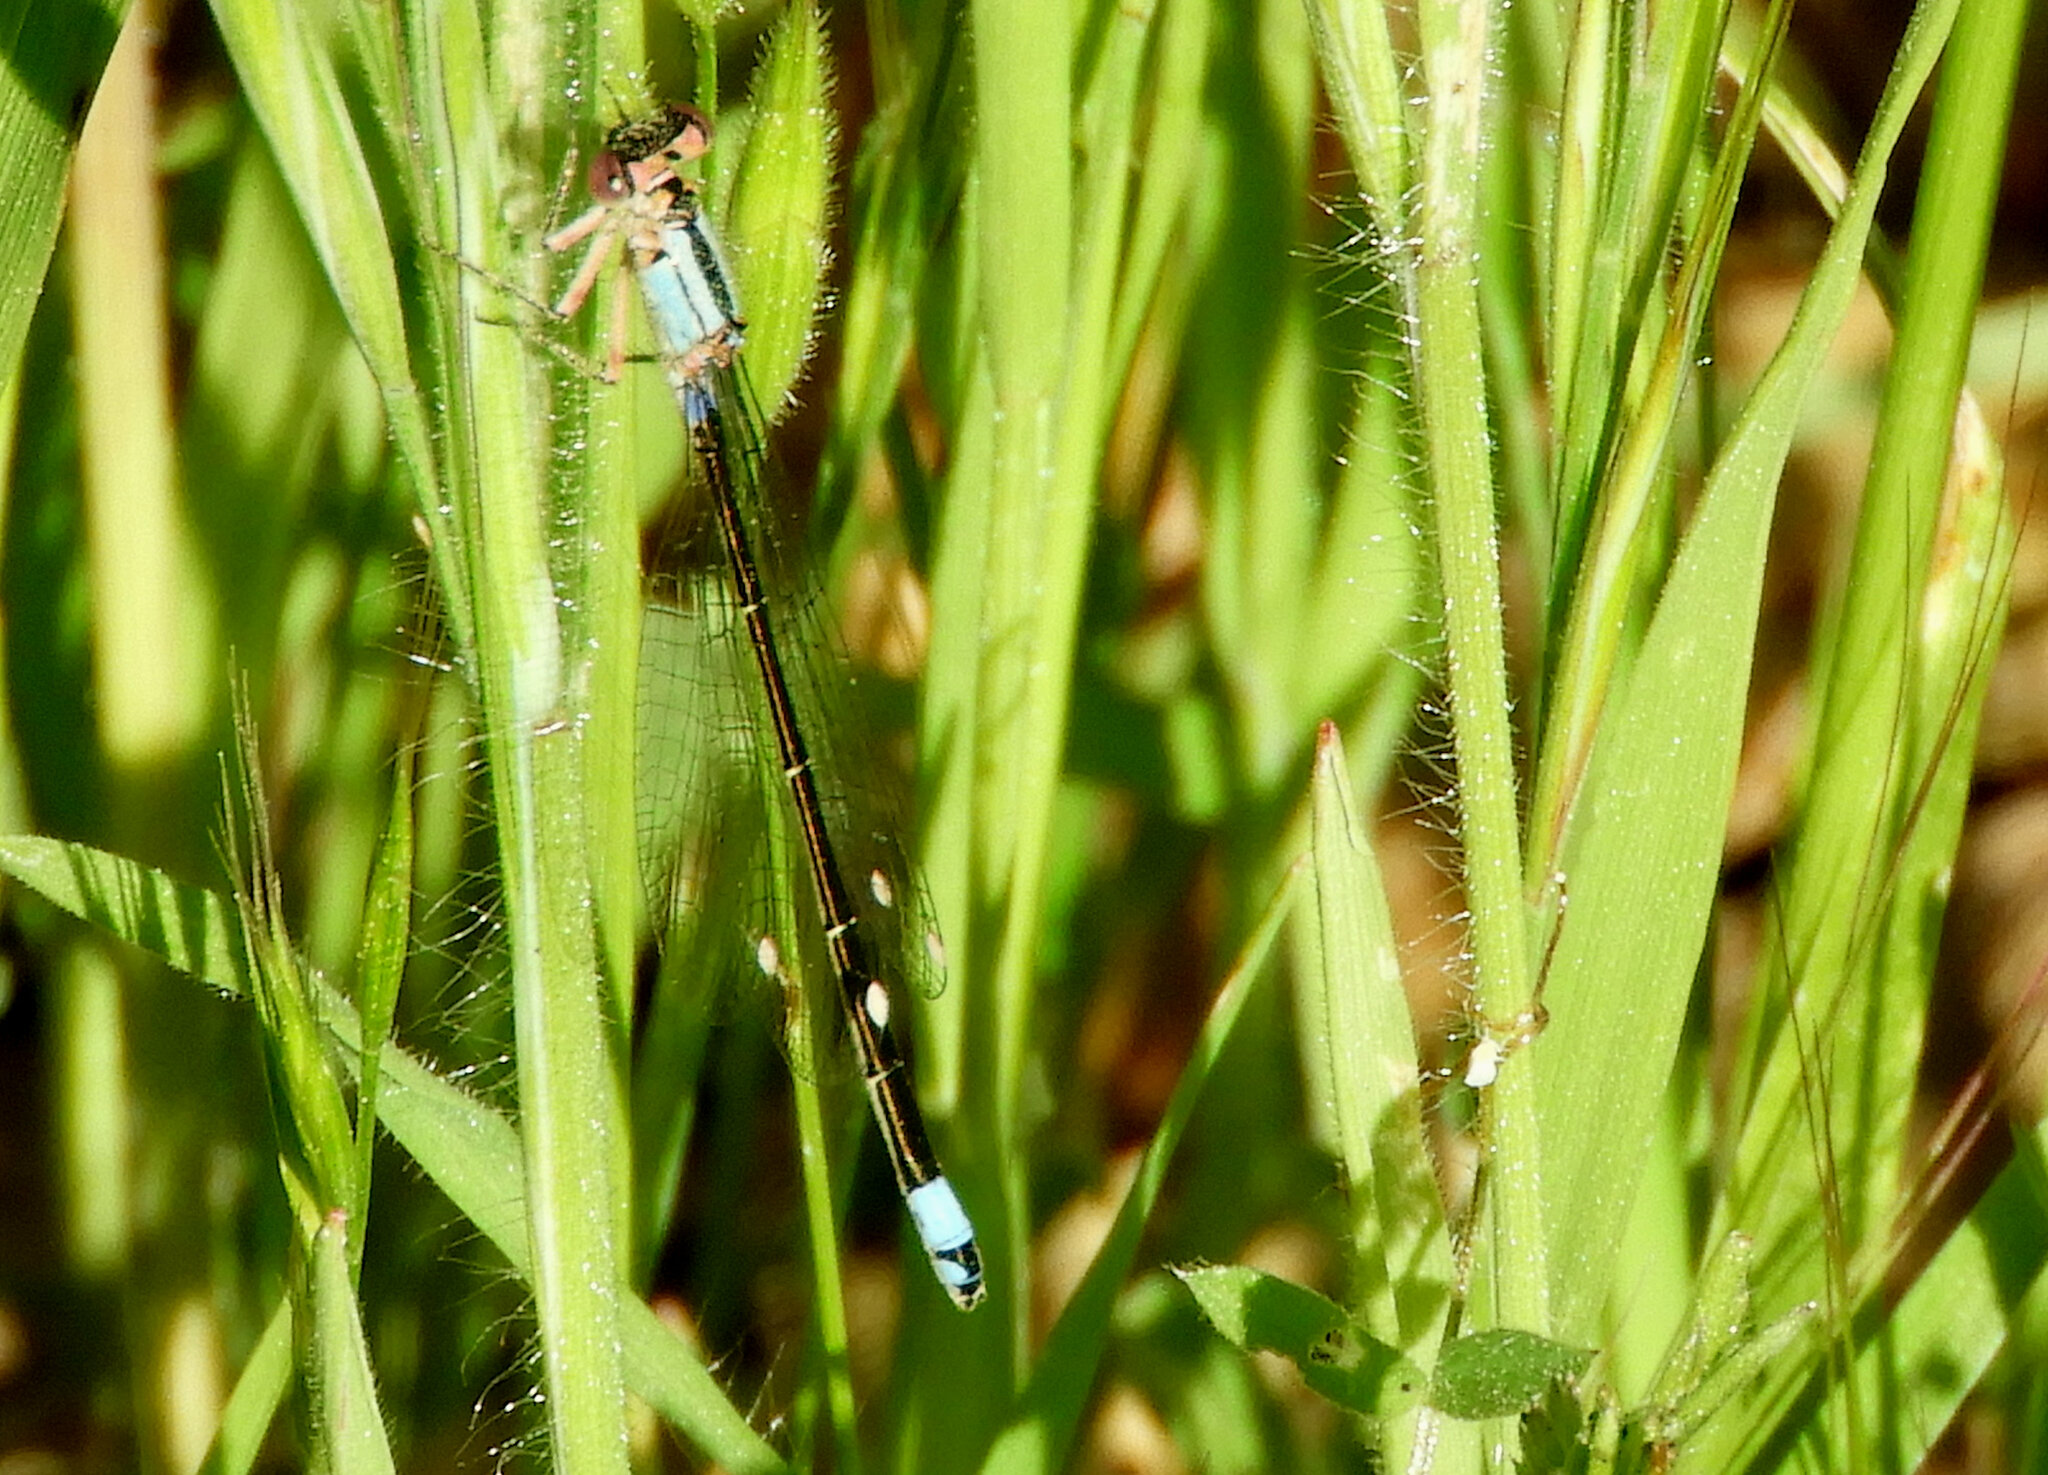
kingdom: Animalia
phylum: Arthropoda
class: Insecta
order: Odonata
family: Coenagrionidae
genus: Ischnura
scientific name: Ischnura cervula
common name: Pacific forktail
